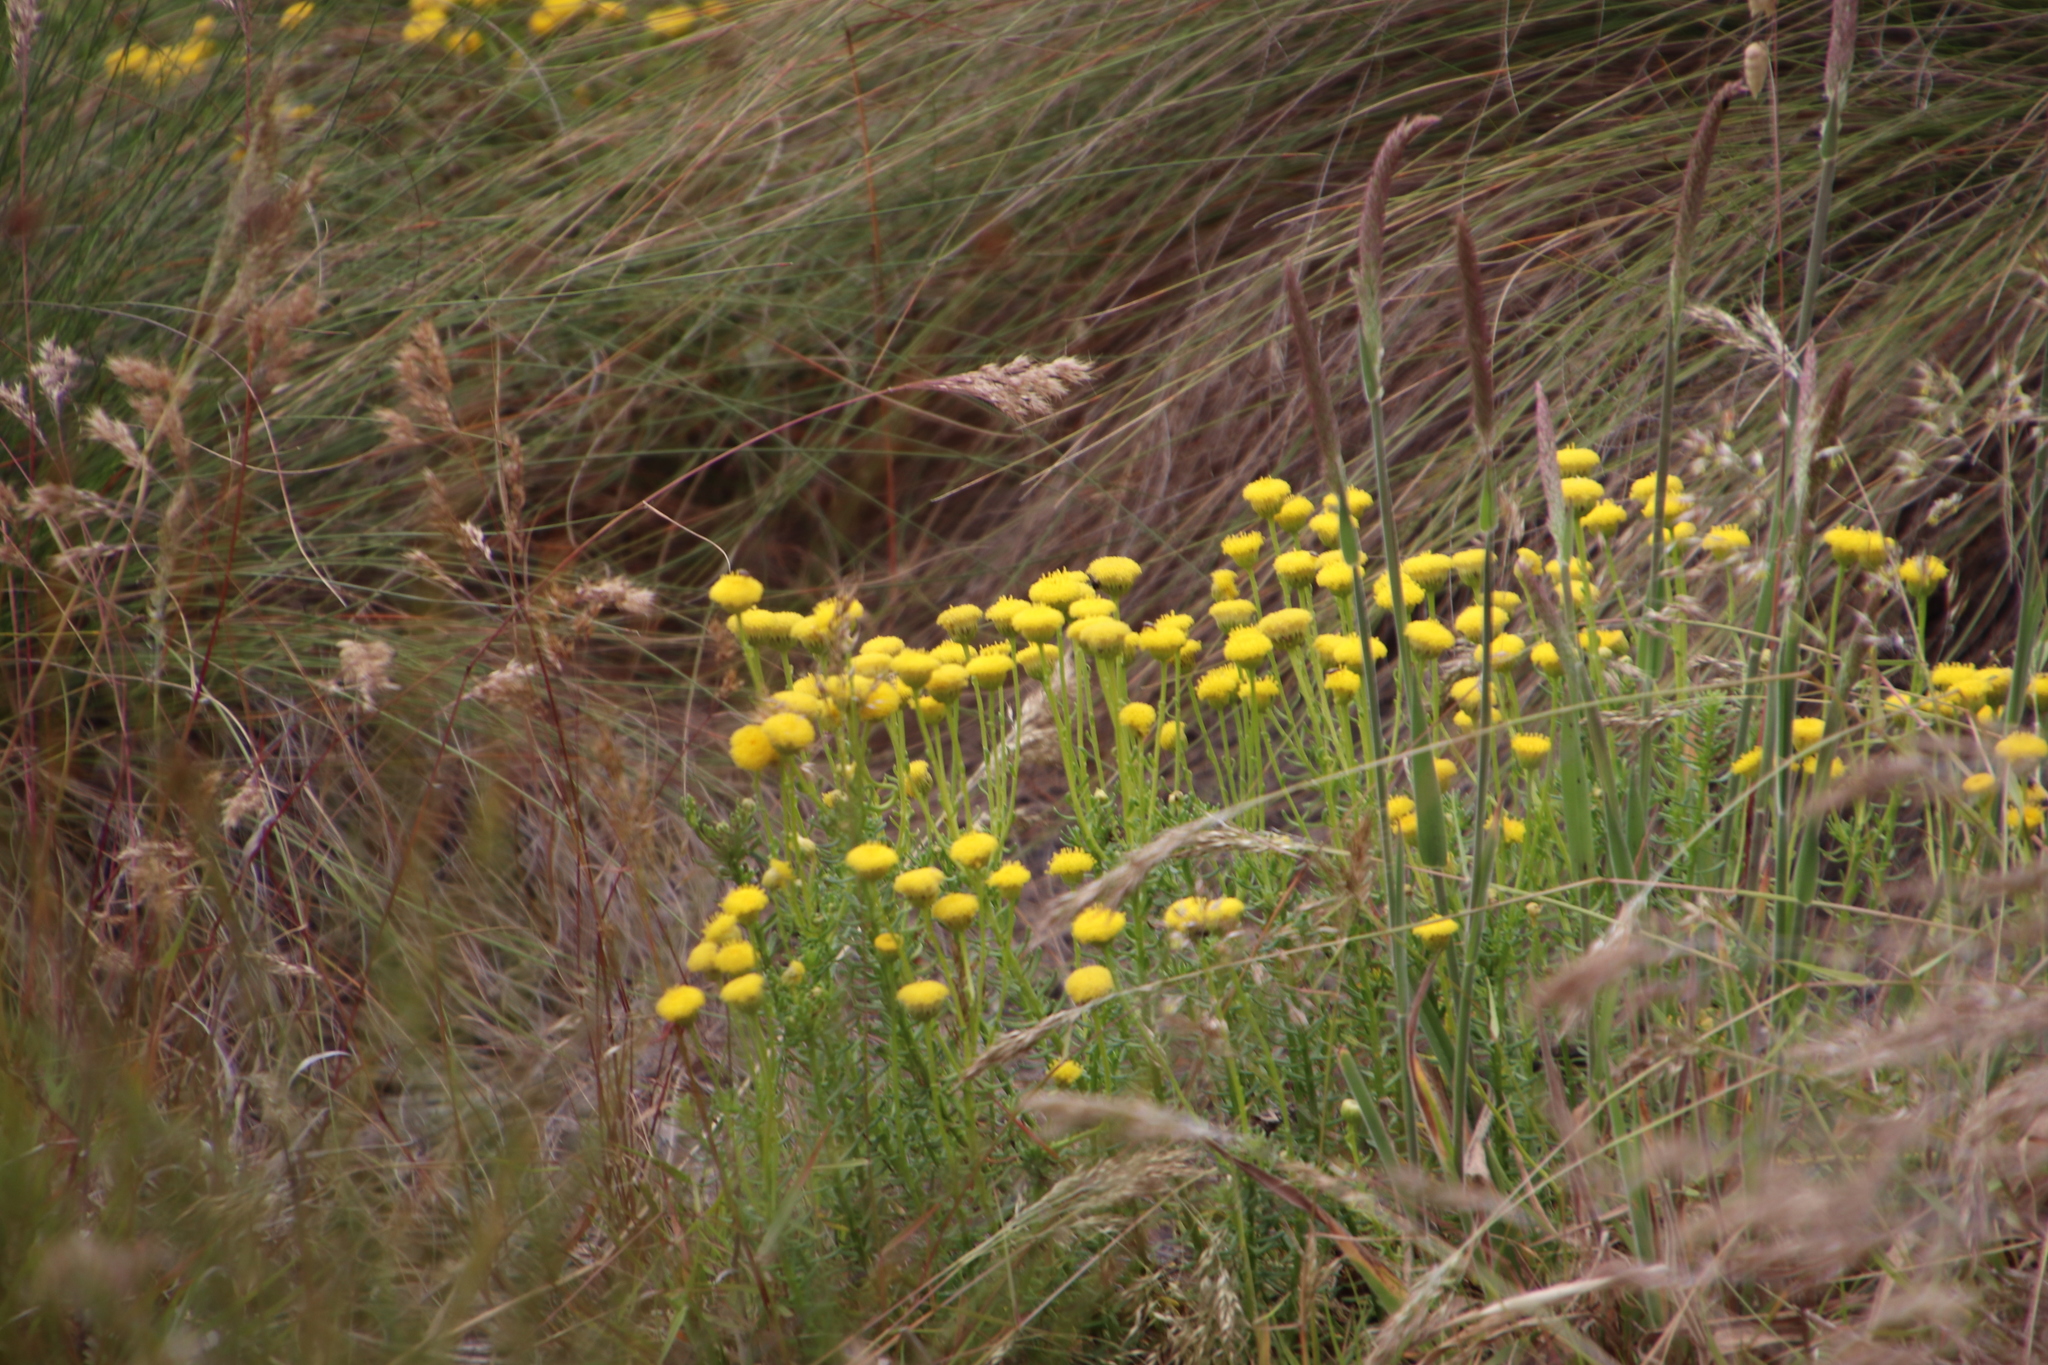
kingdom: Plantae
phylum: Tracheophyta
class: Magnoliopsida
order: Asterales
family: Asteraceae
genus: Chrysocoma
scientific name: Chrysocoma cernua
